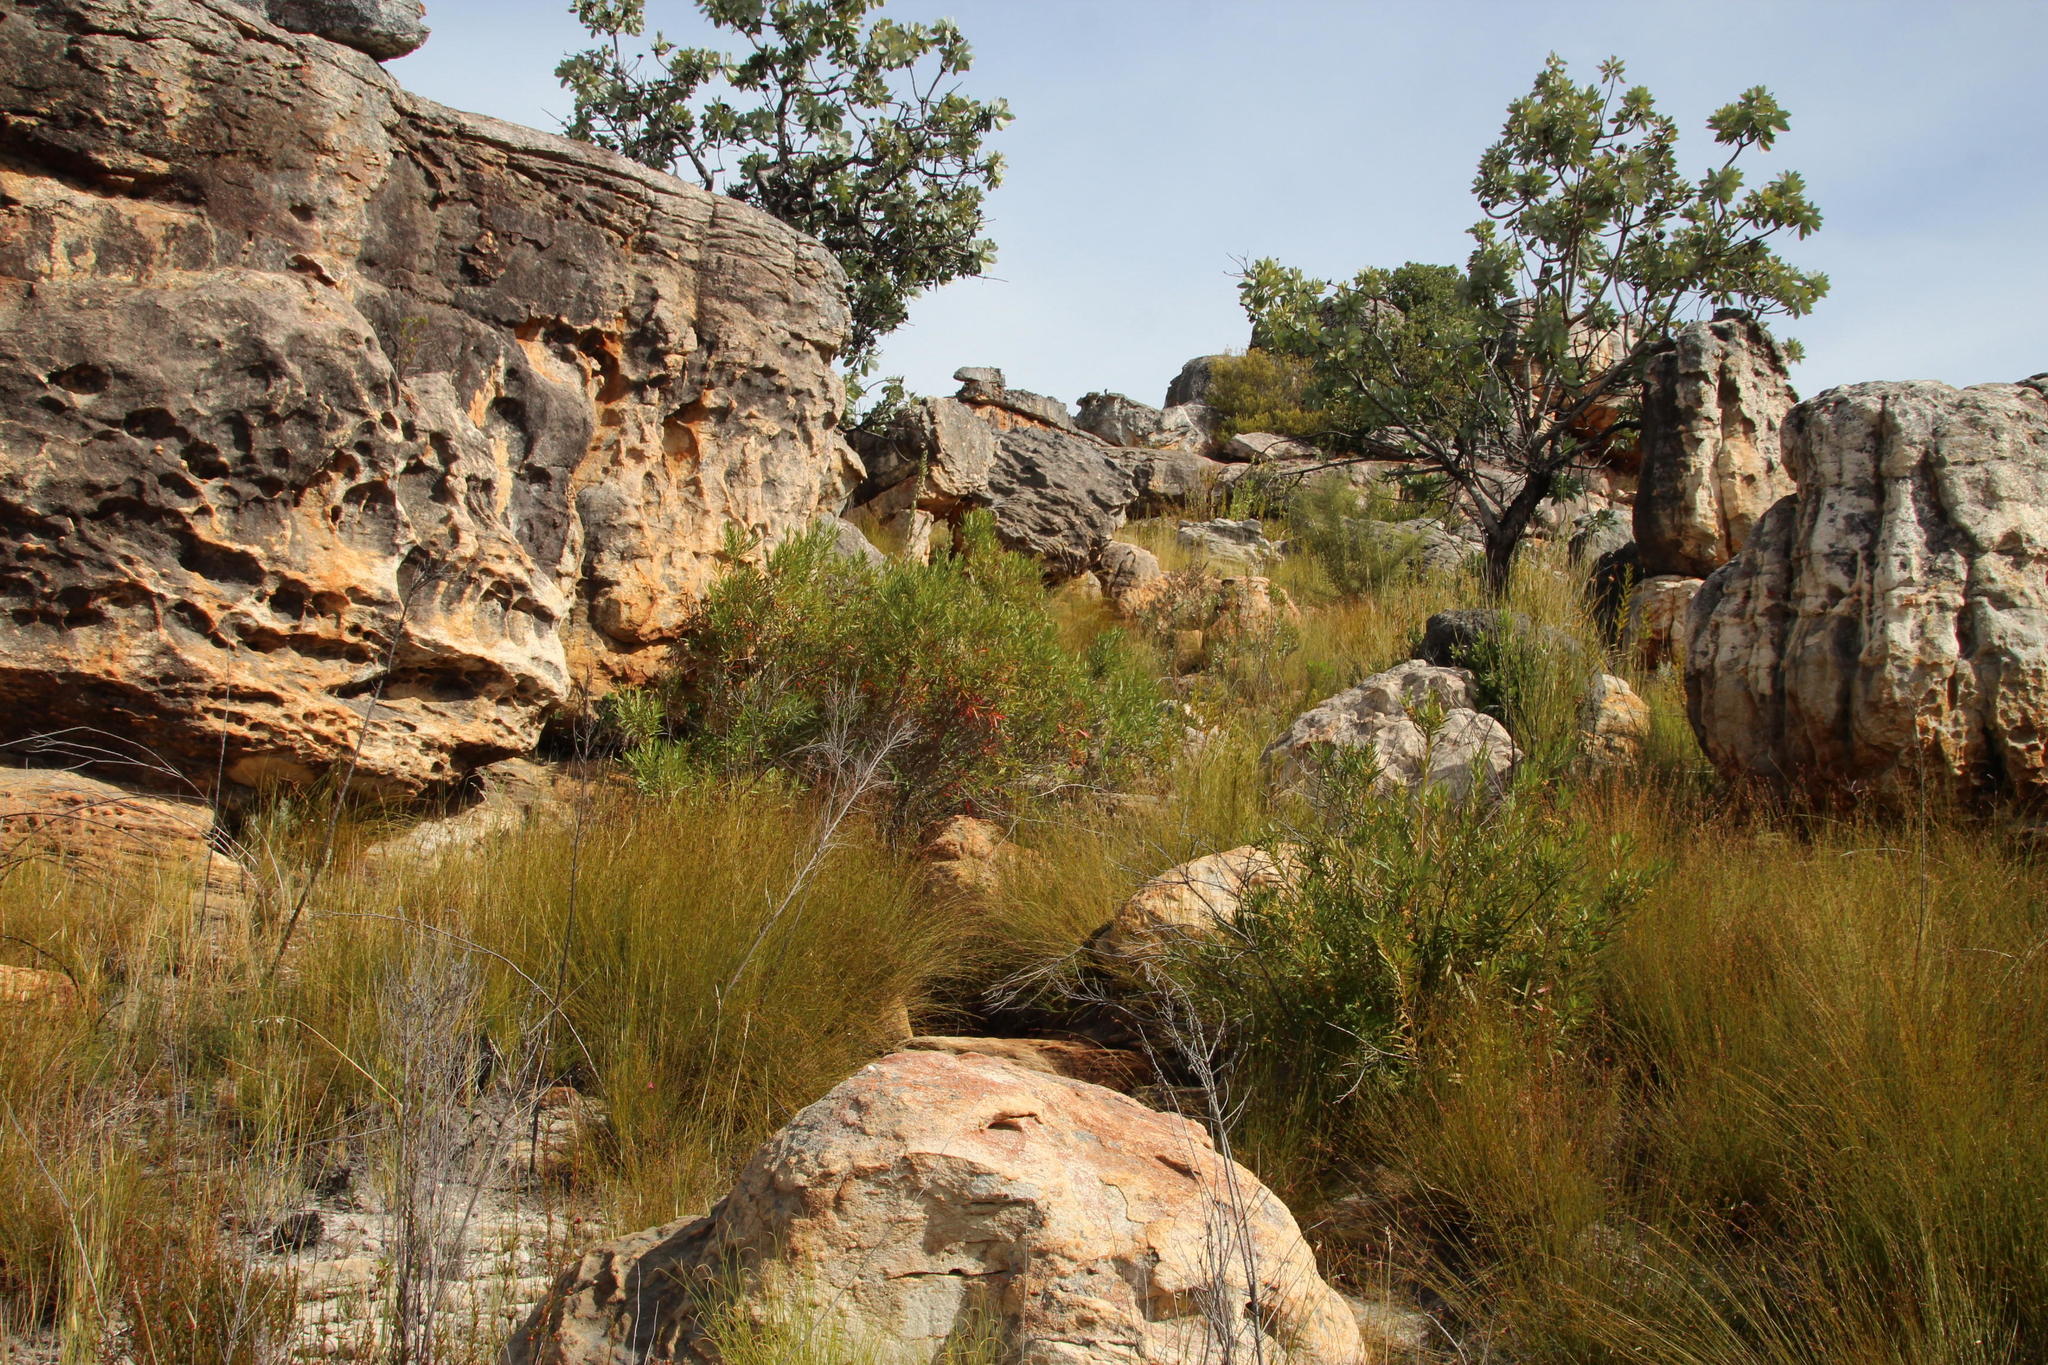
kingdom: Plantae
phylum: Tracheophyta
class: Magnoliopsida
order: Myrtales
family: Myrtaceae
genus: Callistemon
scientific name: Callistemon lanceolatus
